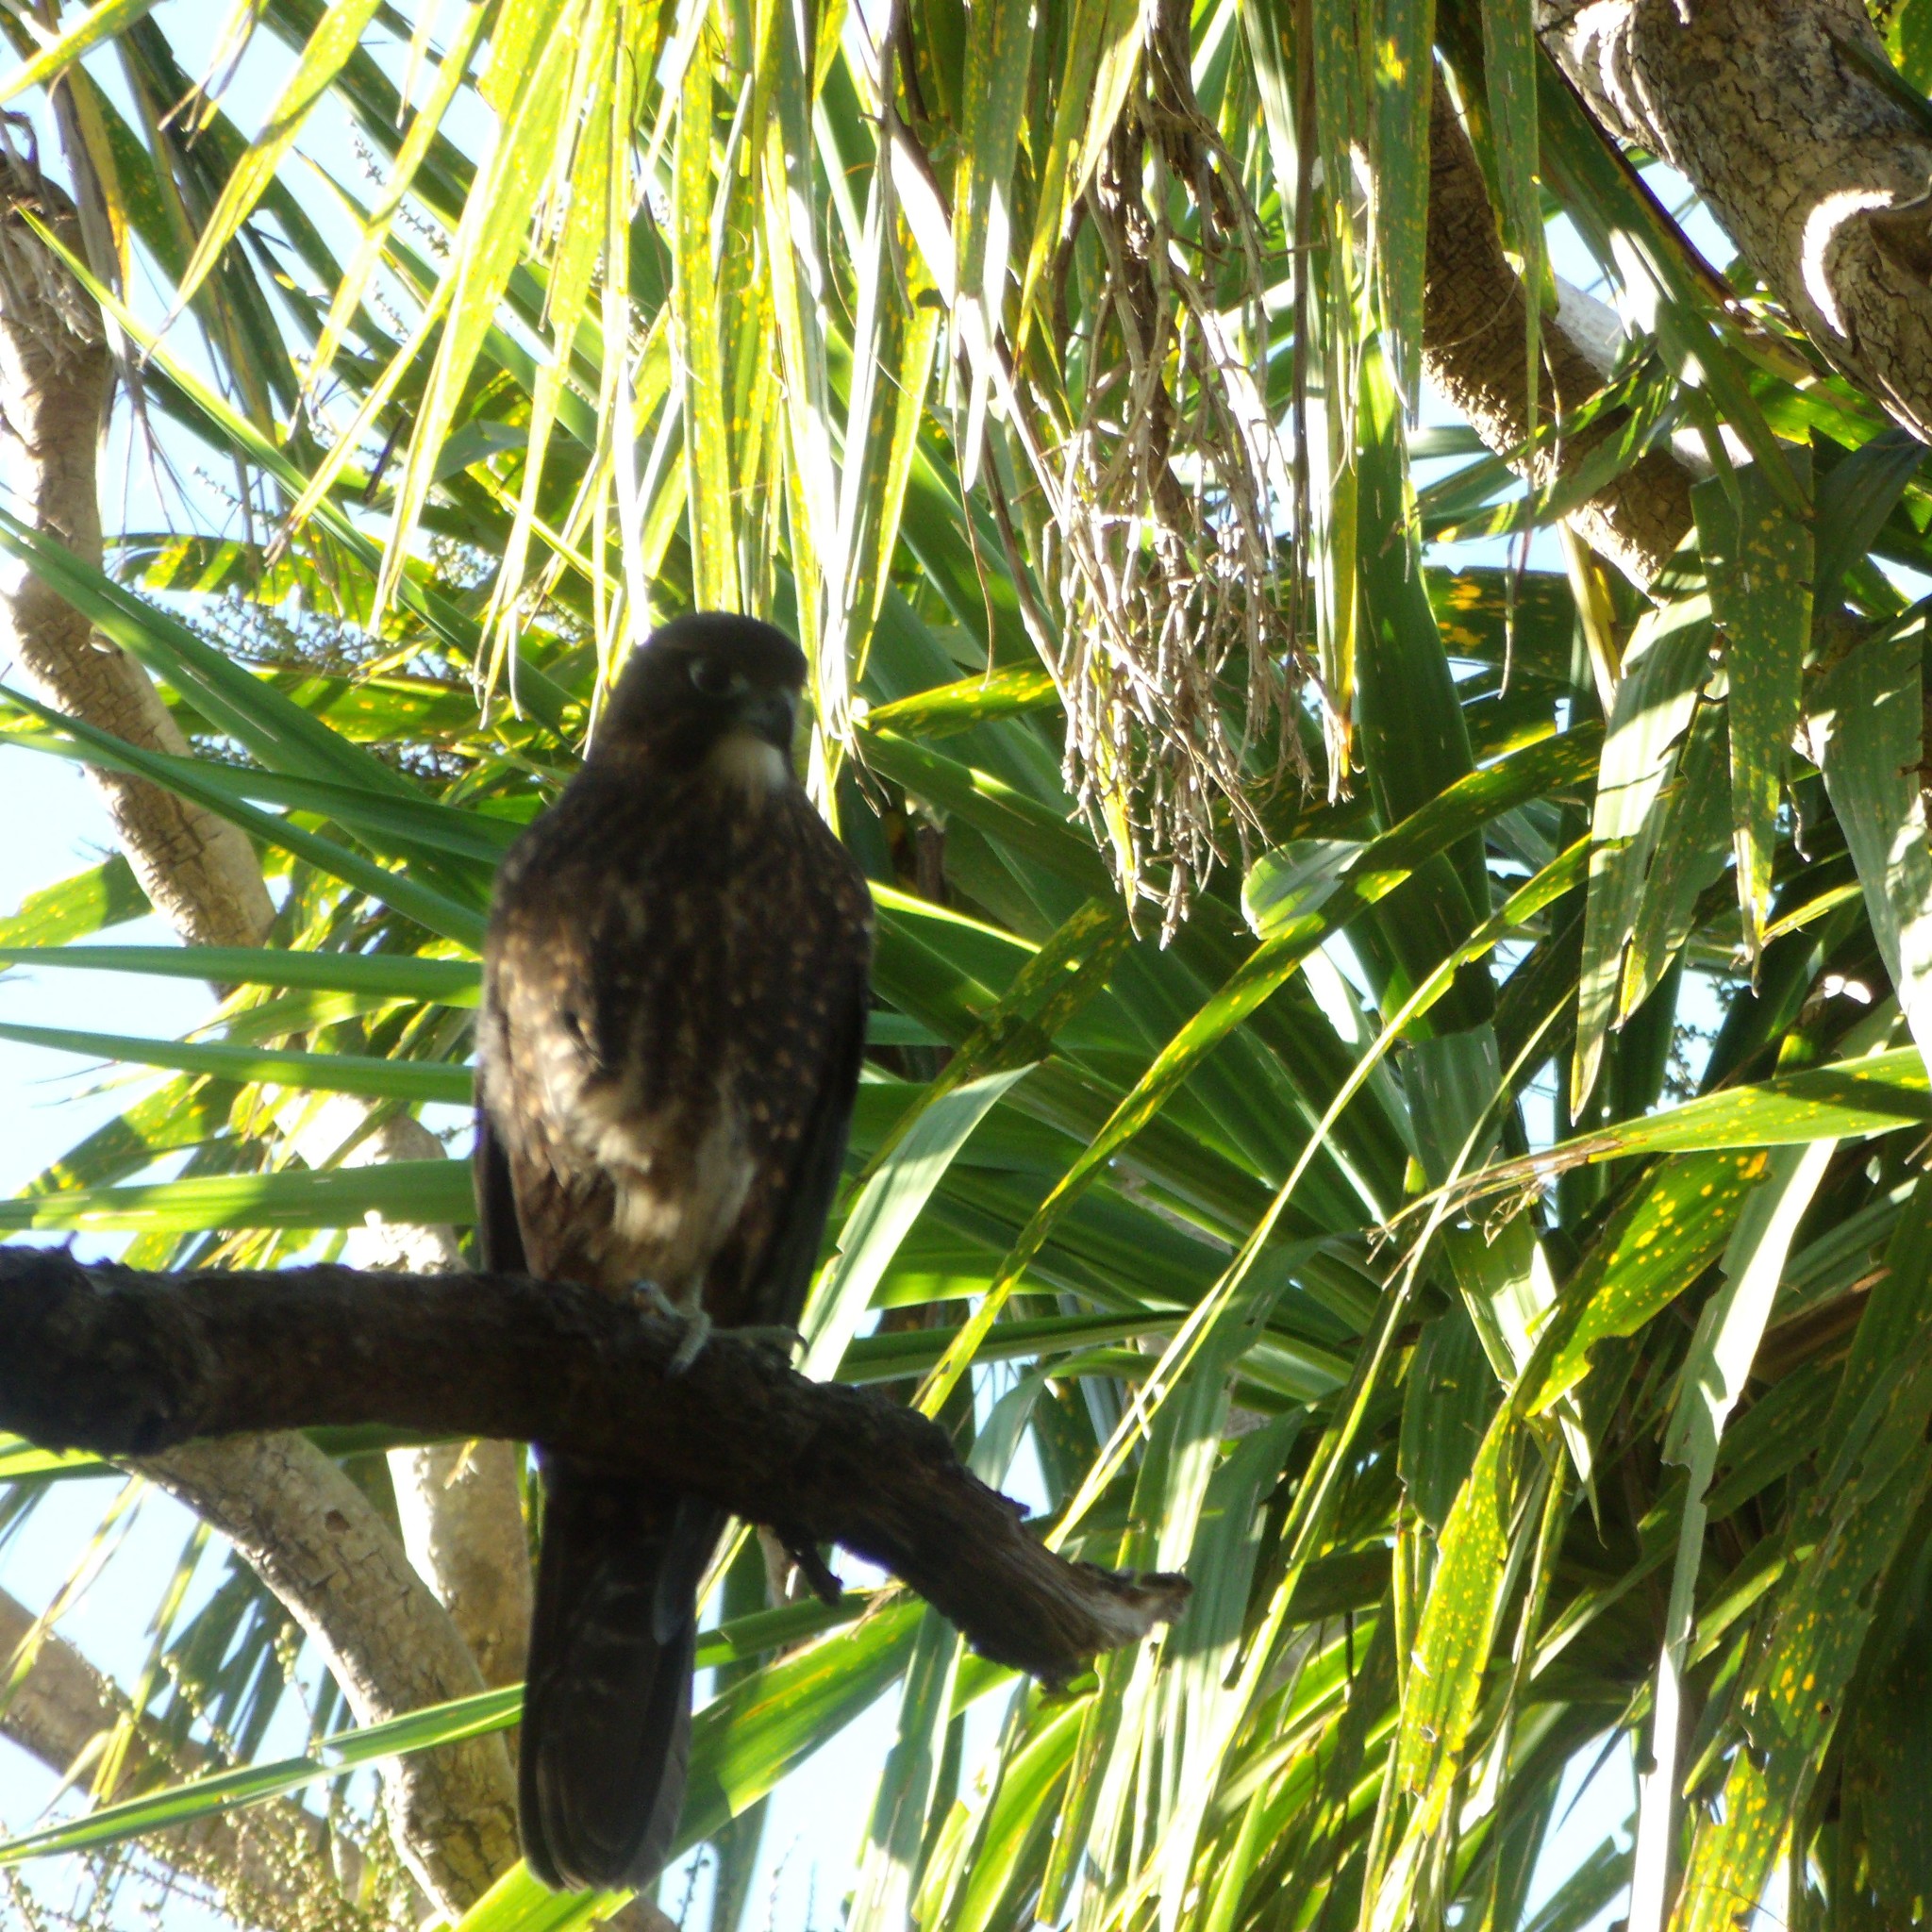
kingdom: Animalia
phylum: Chordata
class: Aves
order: Falconiformes
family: Falconidae
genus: Falco
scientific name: Falco novaeseelandiae
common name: New zealand falcon
